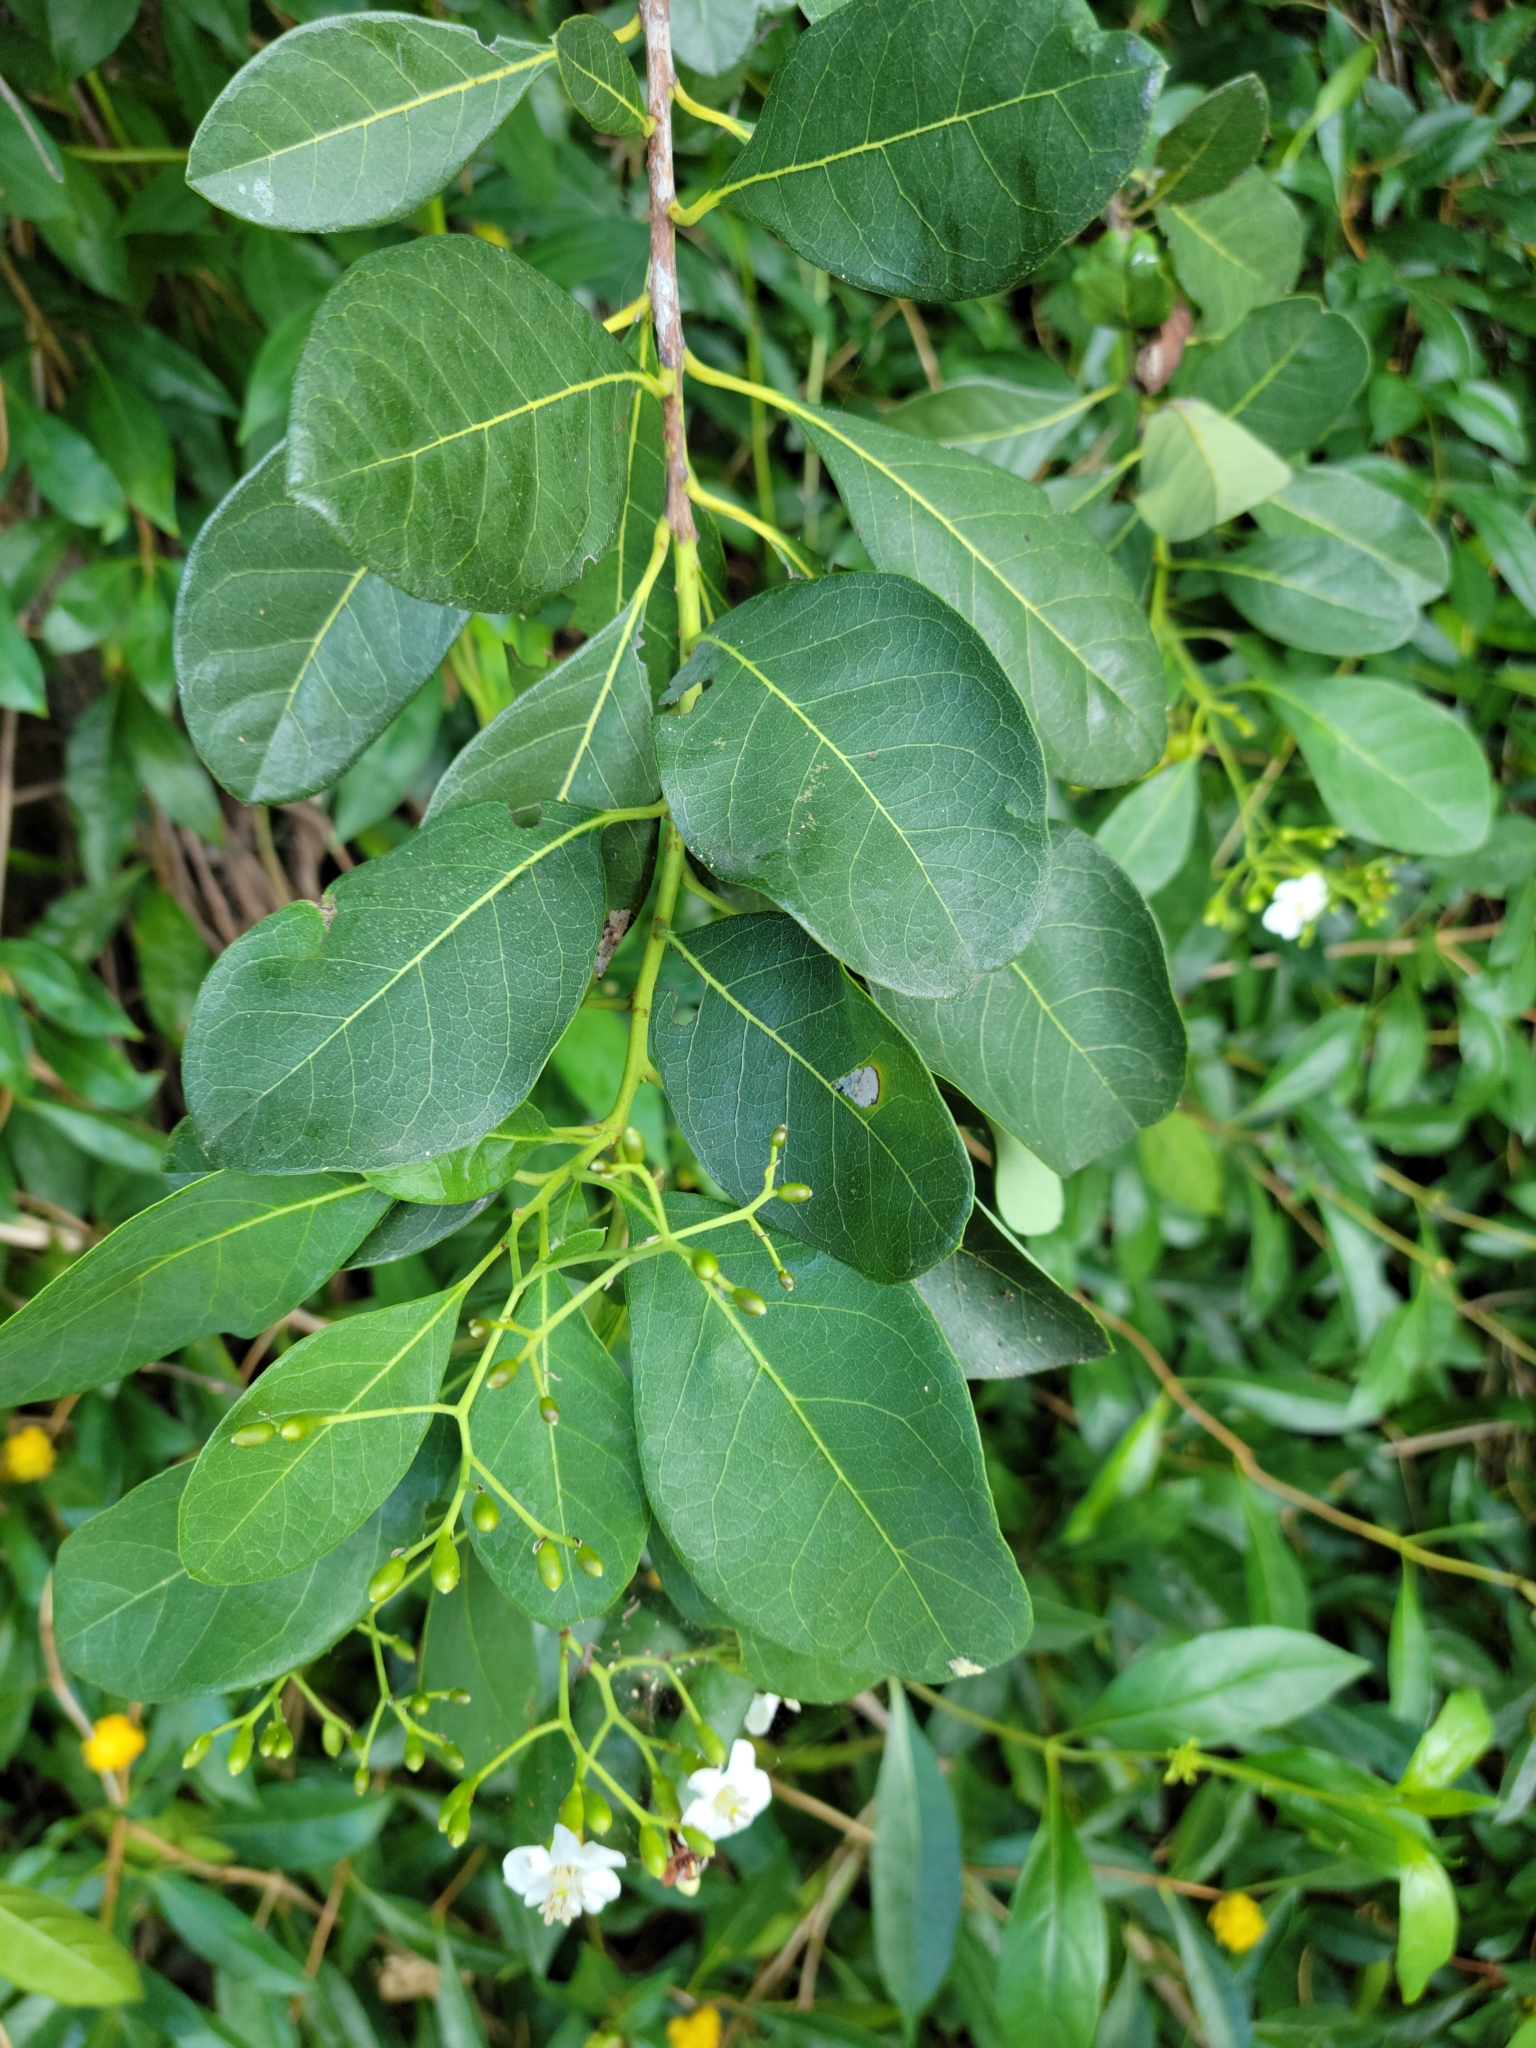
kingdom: Plantae
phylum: Tracheophyta
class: Magnoliopsida
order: Boraginales
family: Ehretiaceae
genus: Bourreria
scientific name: Bourreria succulenta
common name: Cherry
